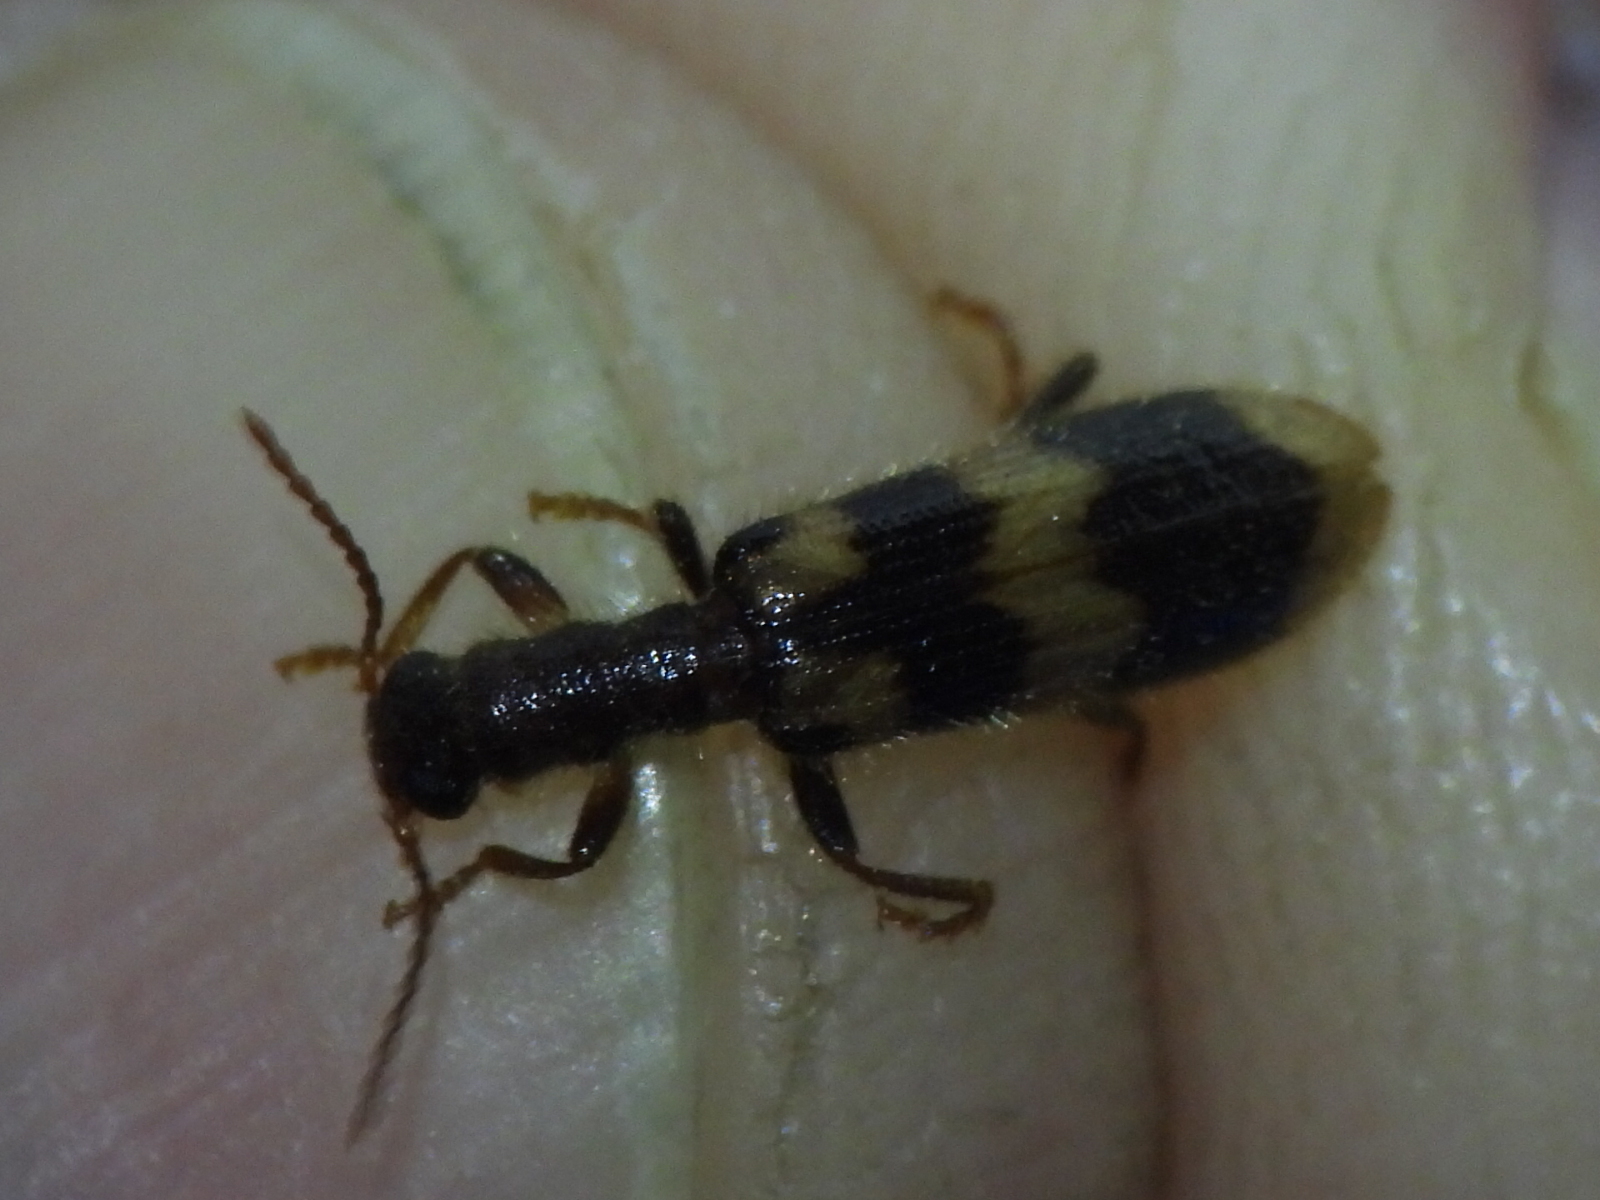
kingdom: Animalia
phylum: Arthropoda
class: Insecta
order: Coleoptera
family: Cleridae
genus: Cymatodera
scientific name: Cymatodera sirpata
